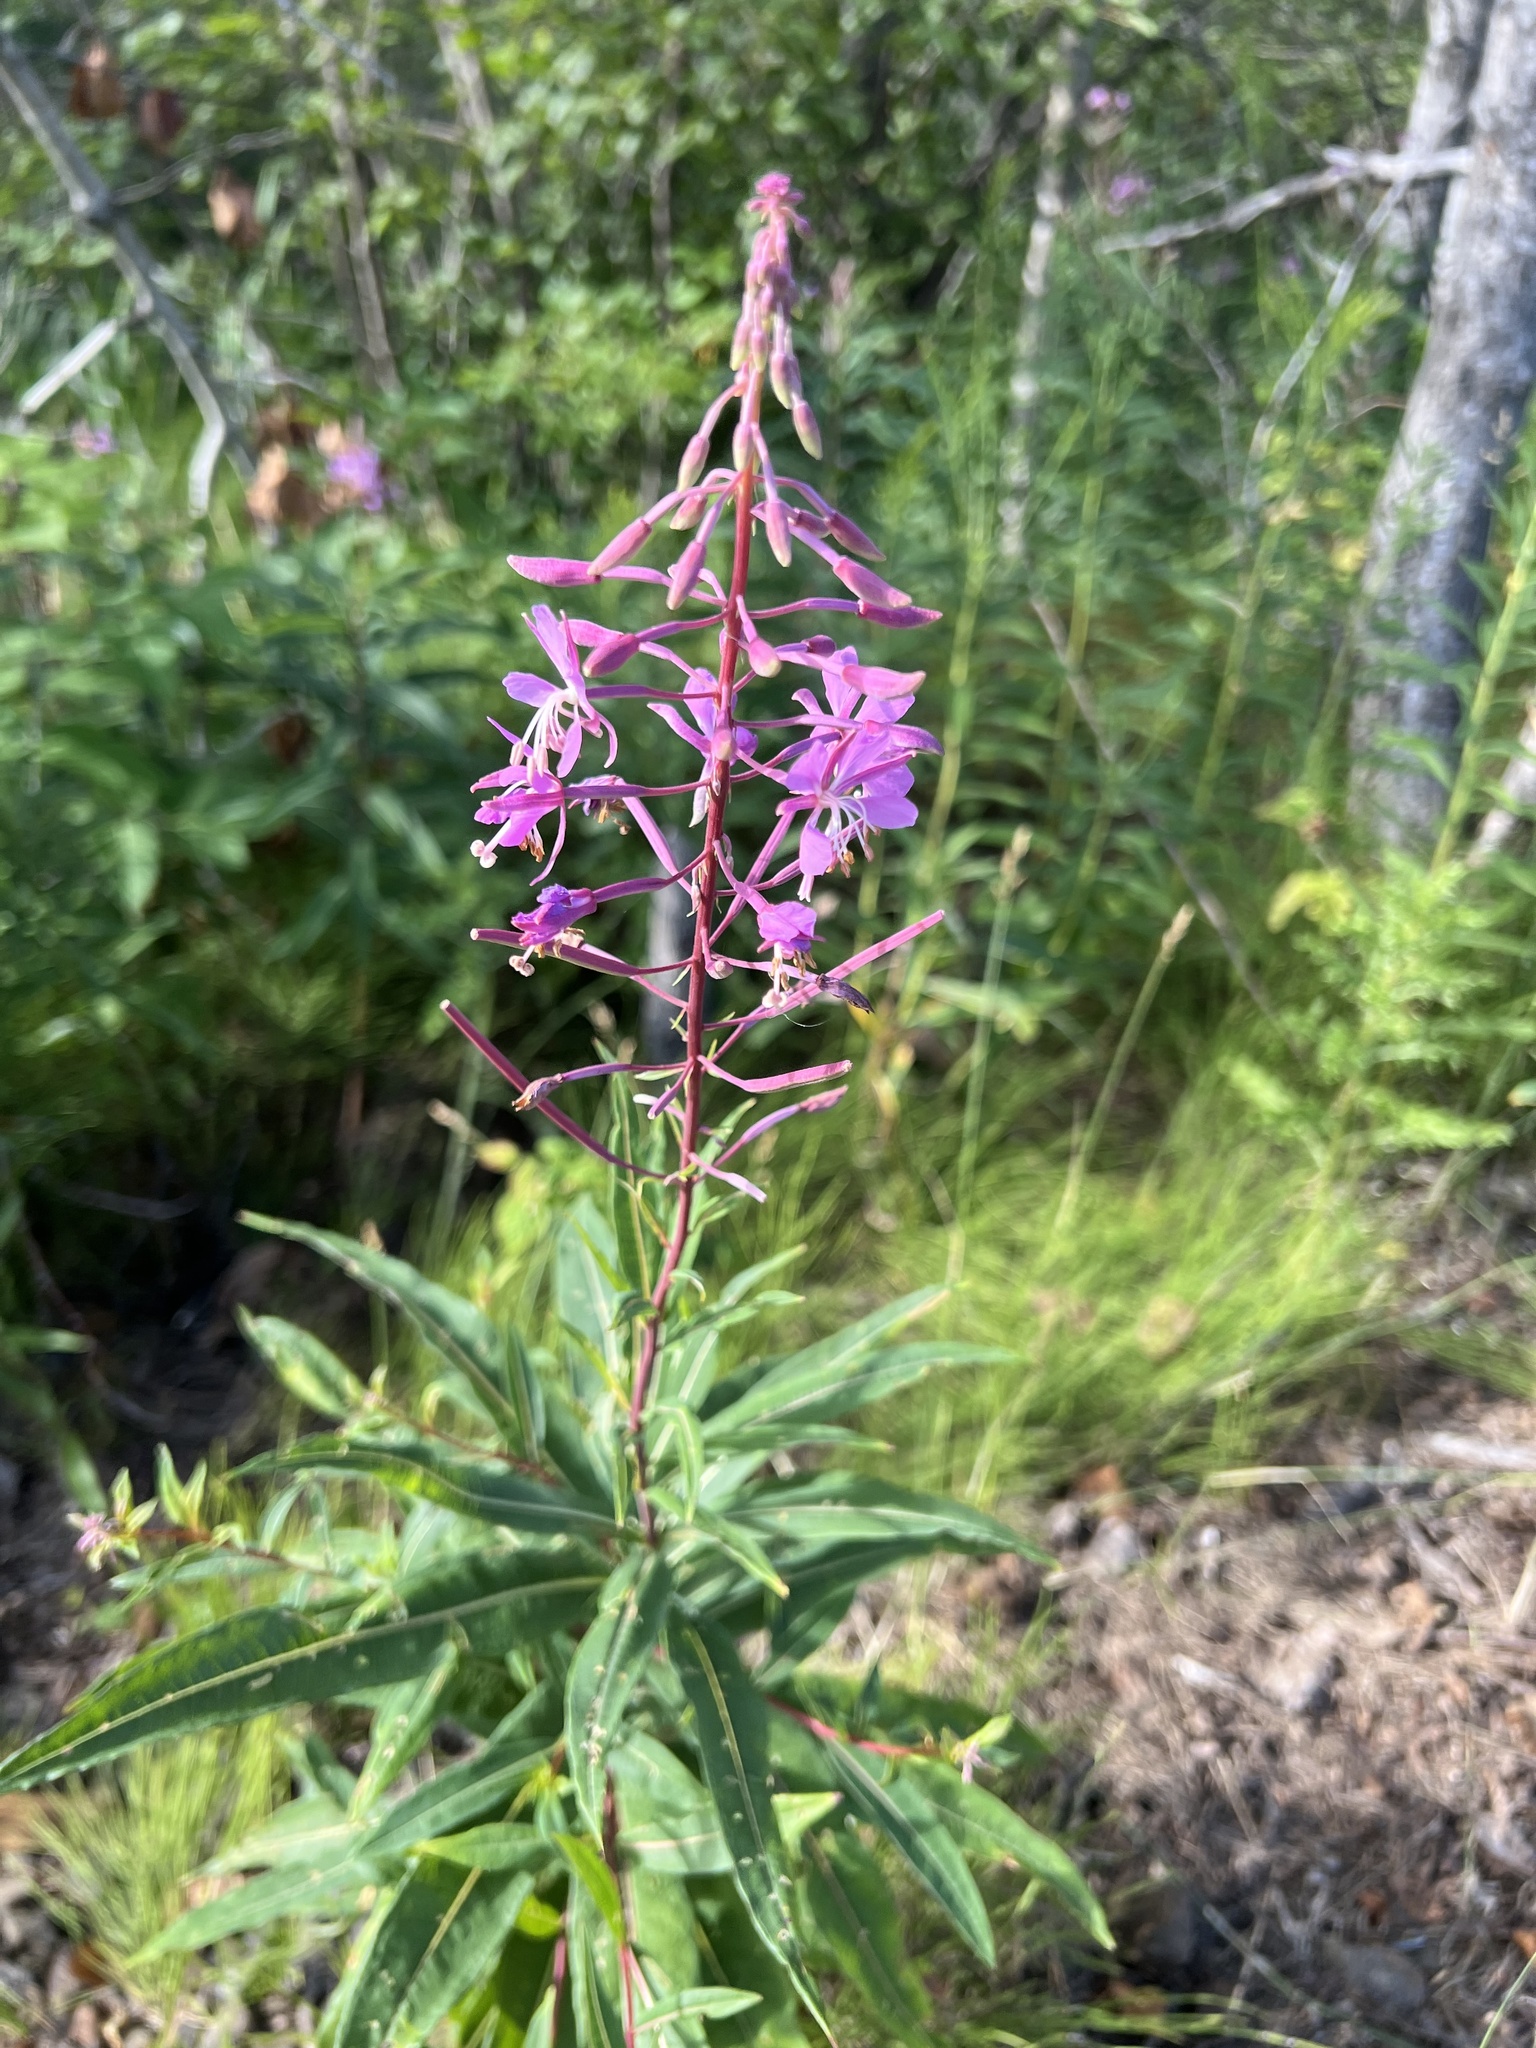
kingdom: Plantae
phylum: Tracheophyta
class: Magnoliopsida
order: Myrtales
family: Onagraceae
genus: Chamaenerion
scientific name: Chamaenerion angustifolium
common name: Fireweed
